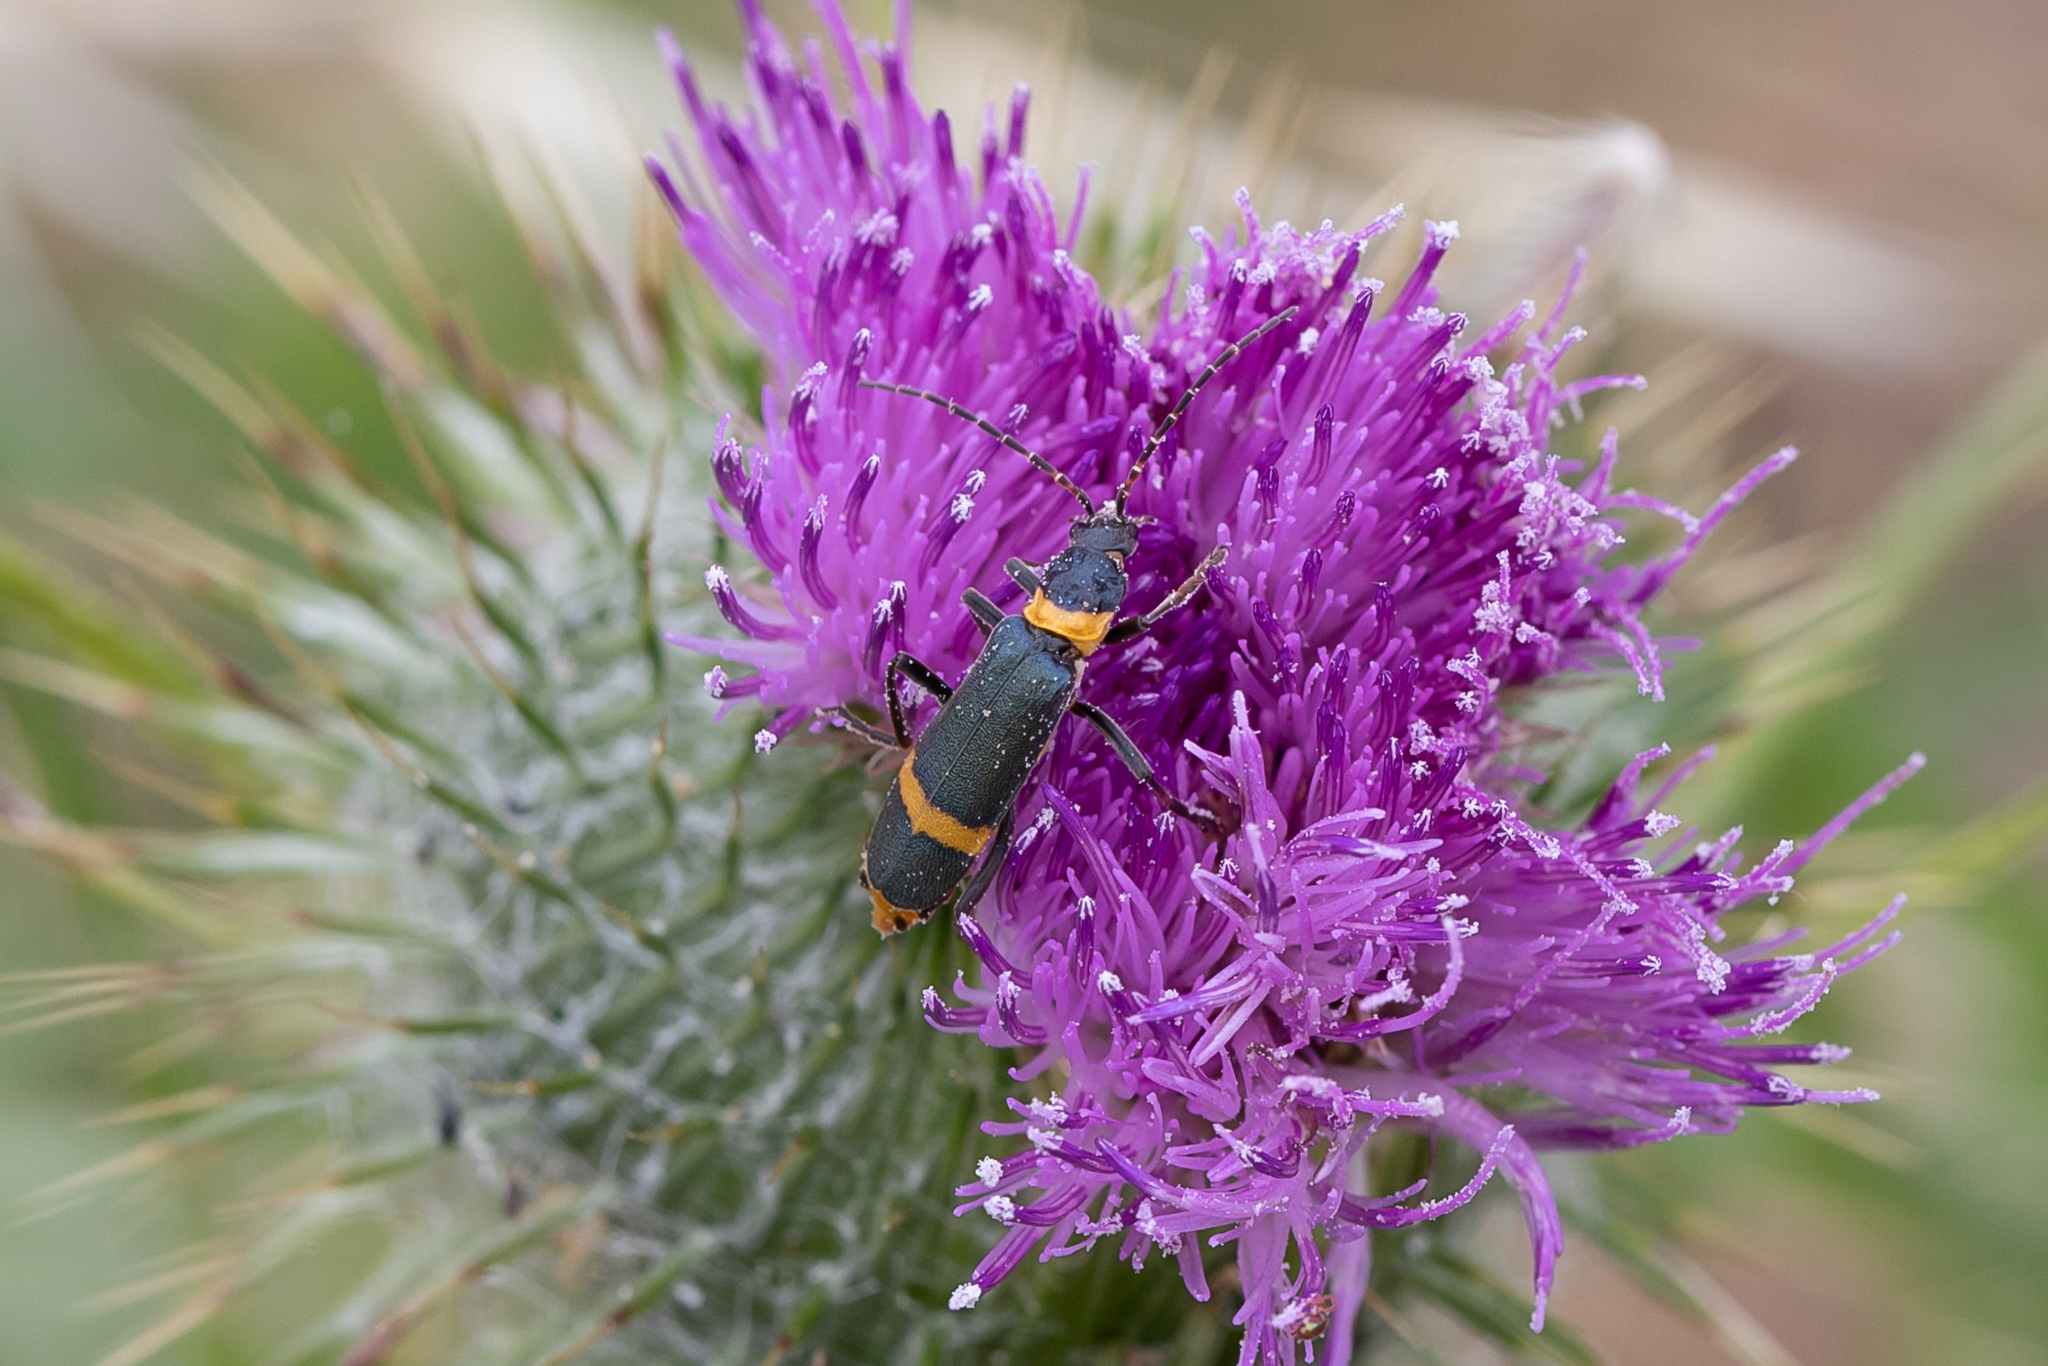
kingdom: Animalia
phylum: Arthropoda
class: Insecta
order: Coleoptera
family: Cantharidae
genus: Chauliognathus
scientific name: Chauliognathus
